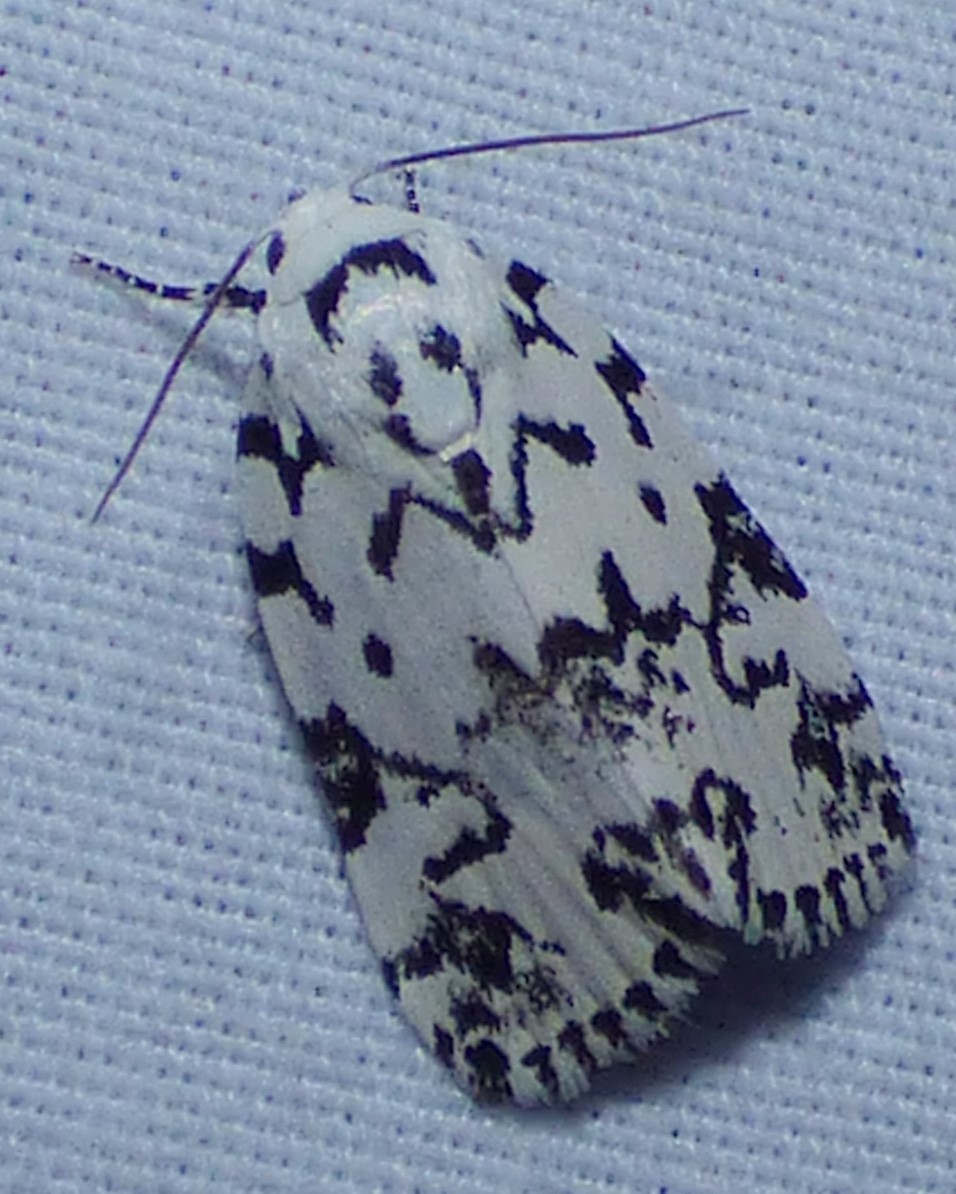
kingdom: Animalia
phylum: Arthropoda
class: Insecta
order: Lepidoptera
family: Noctuidae
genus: Polygrammate
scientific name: Polygrammate hebraeicum
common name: Hebrew moth
